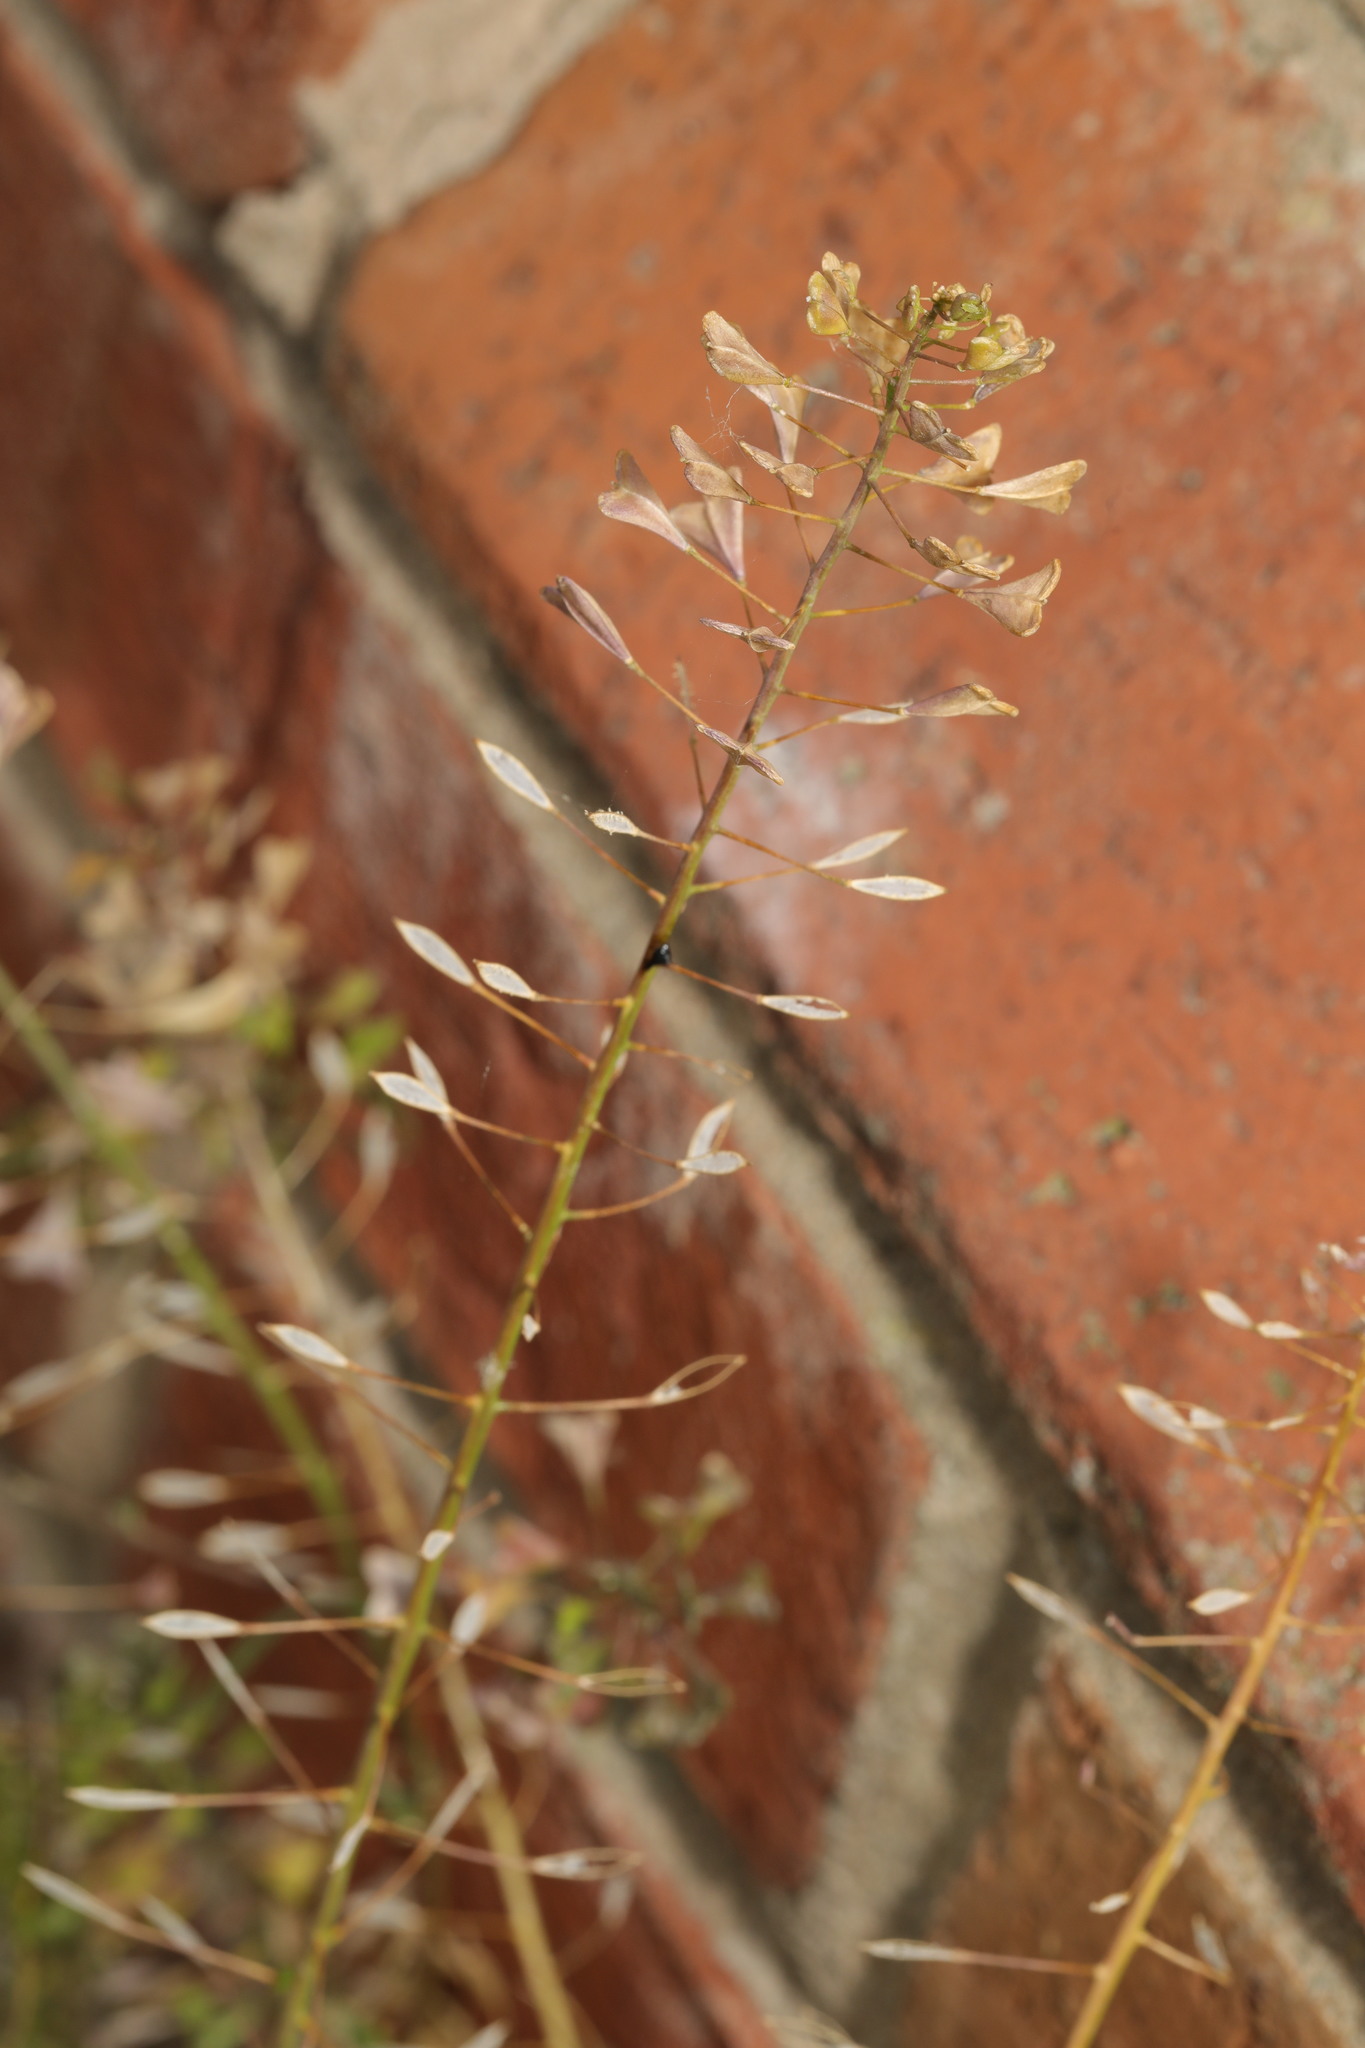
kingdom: Plantae
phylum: Tracheophyta
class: Magnoliopsida
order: Brassicales
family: Brassicaceae
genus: Capsella
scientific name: Capsella bursa-pastoris
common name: Shepherd's purse
